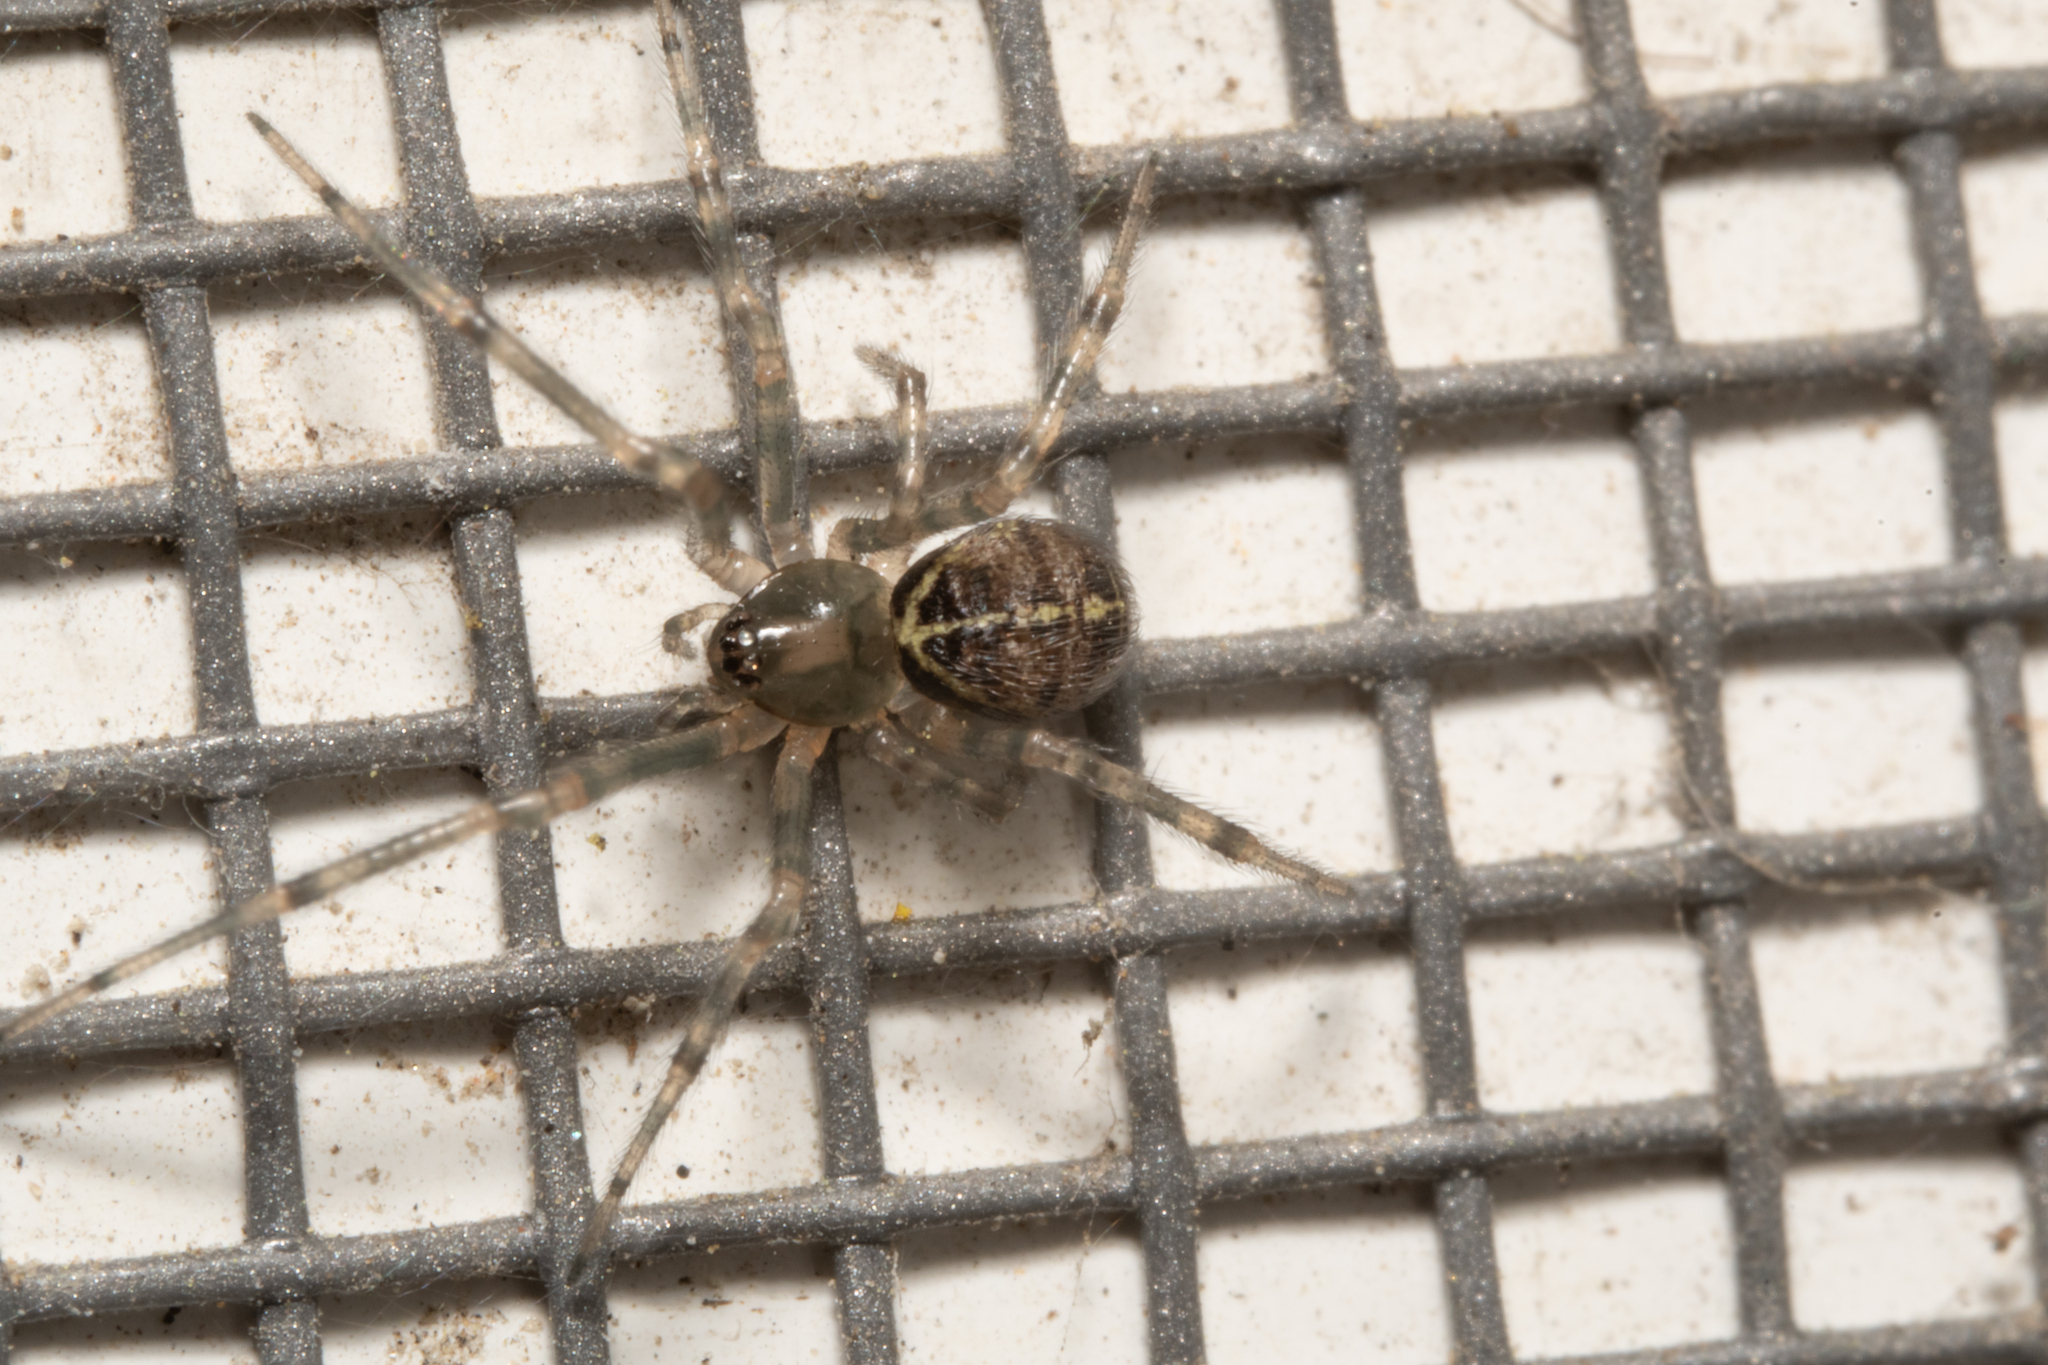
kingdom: Animalia
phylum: Arthropoda
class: Arachnida
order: Araneae
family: Theridiidae
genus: Steatoda
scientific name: Steatoda castanea
